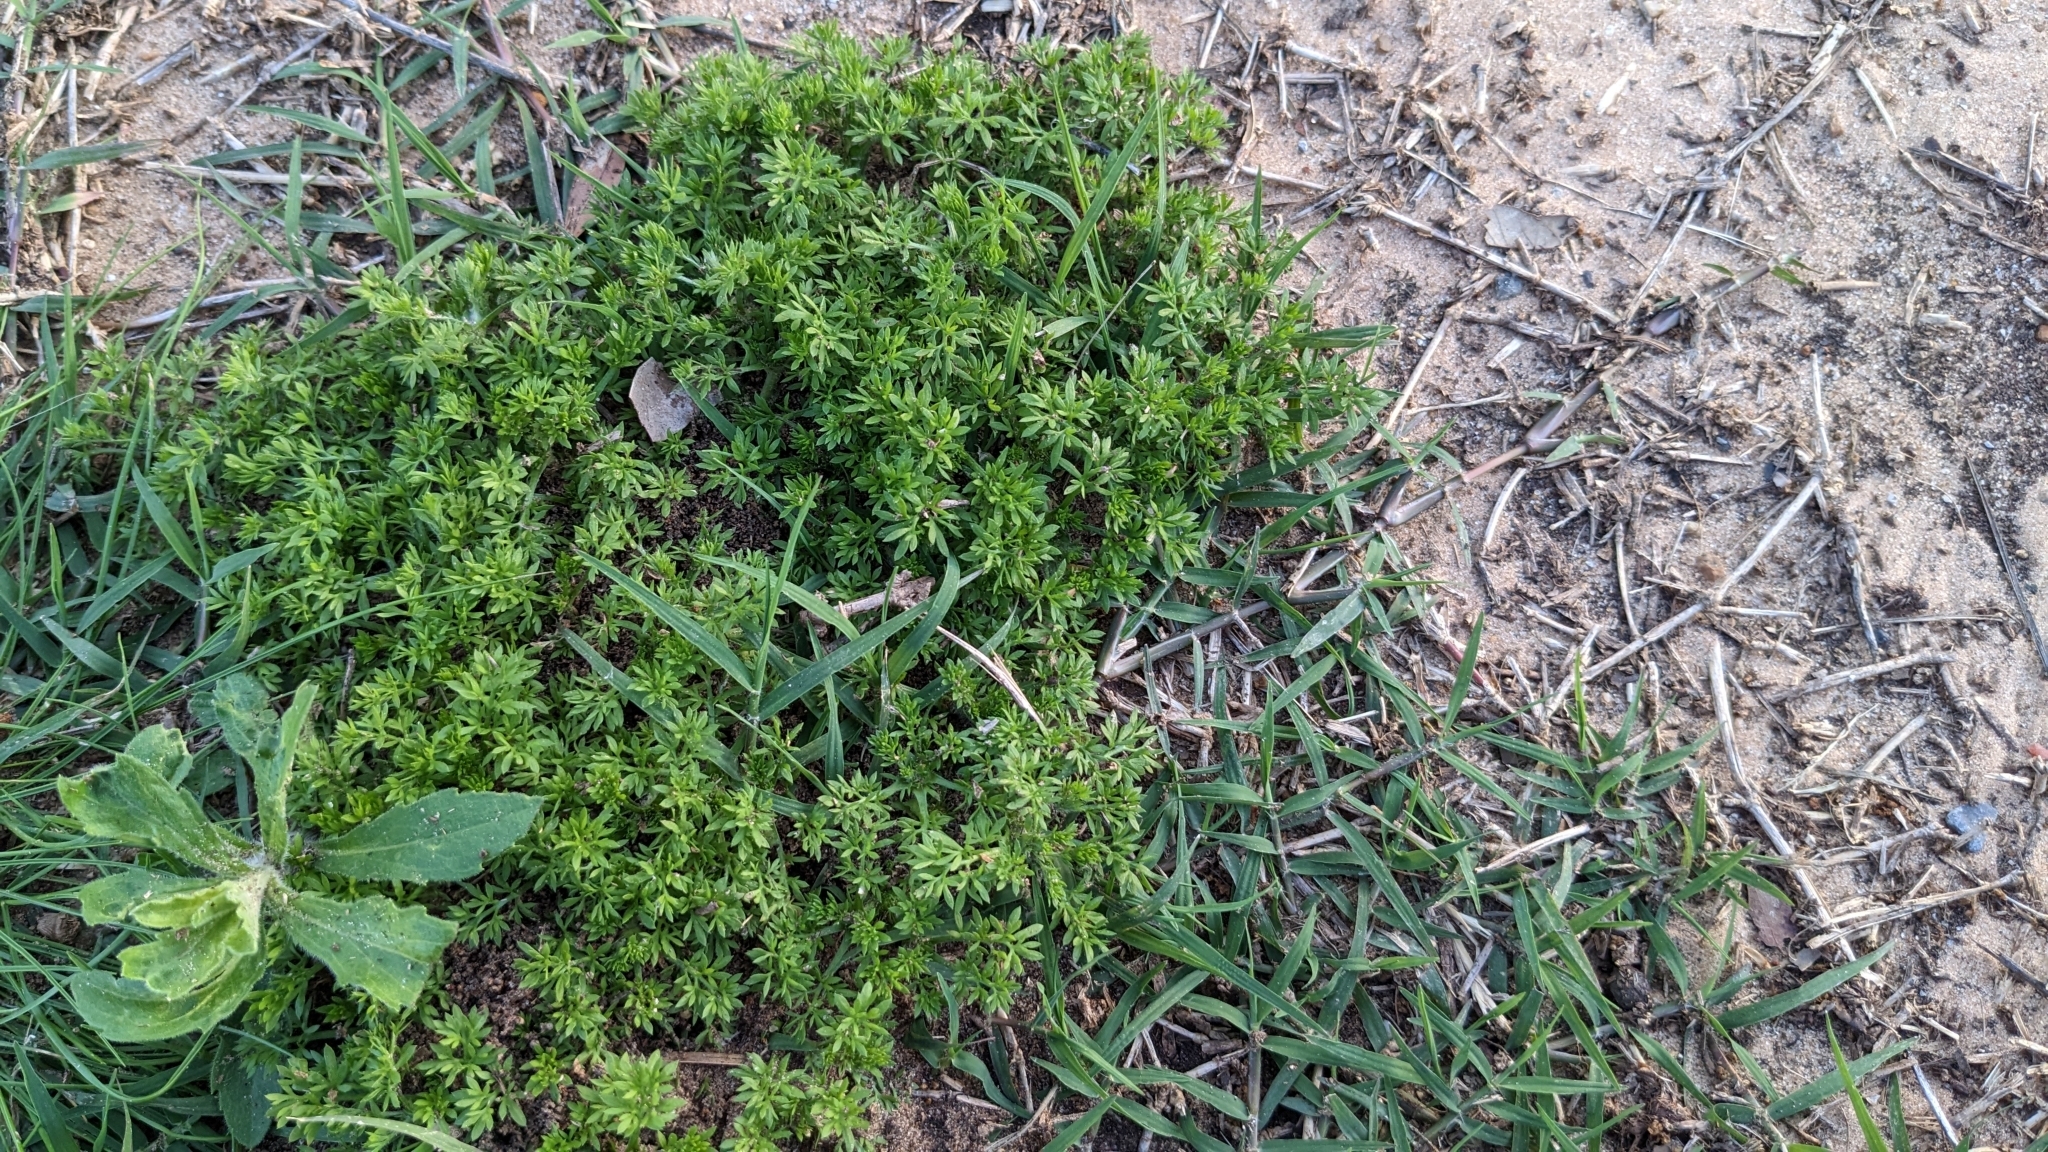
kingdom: Plantae
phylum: Tracheophyta
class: Magnoliopsida
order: Asterales
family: Asteraceae
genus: Soliva
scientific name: Soliva sessilis
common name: Field burrweed
